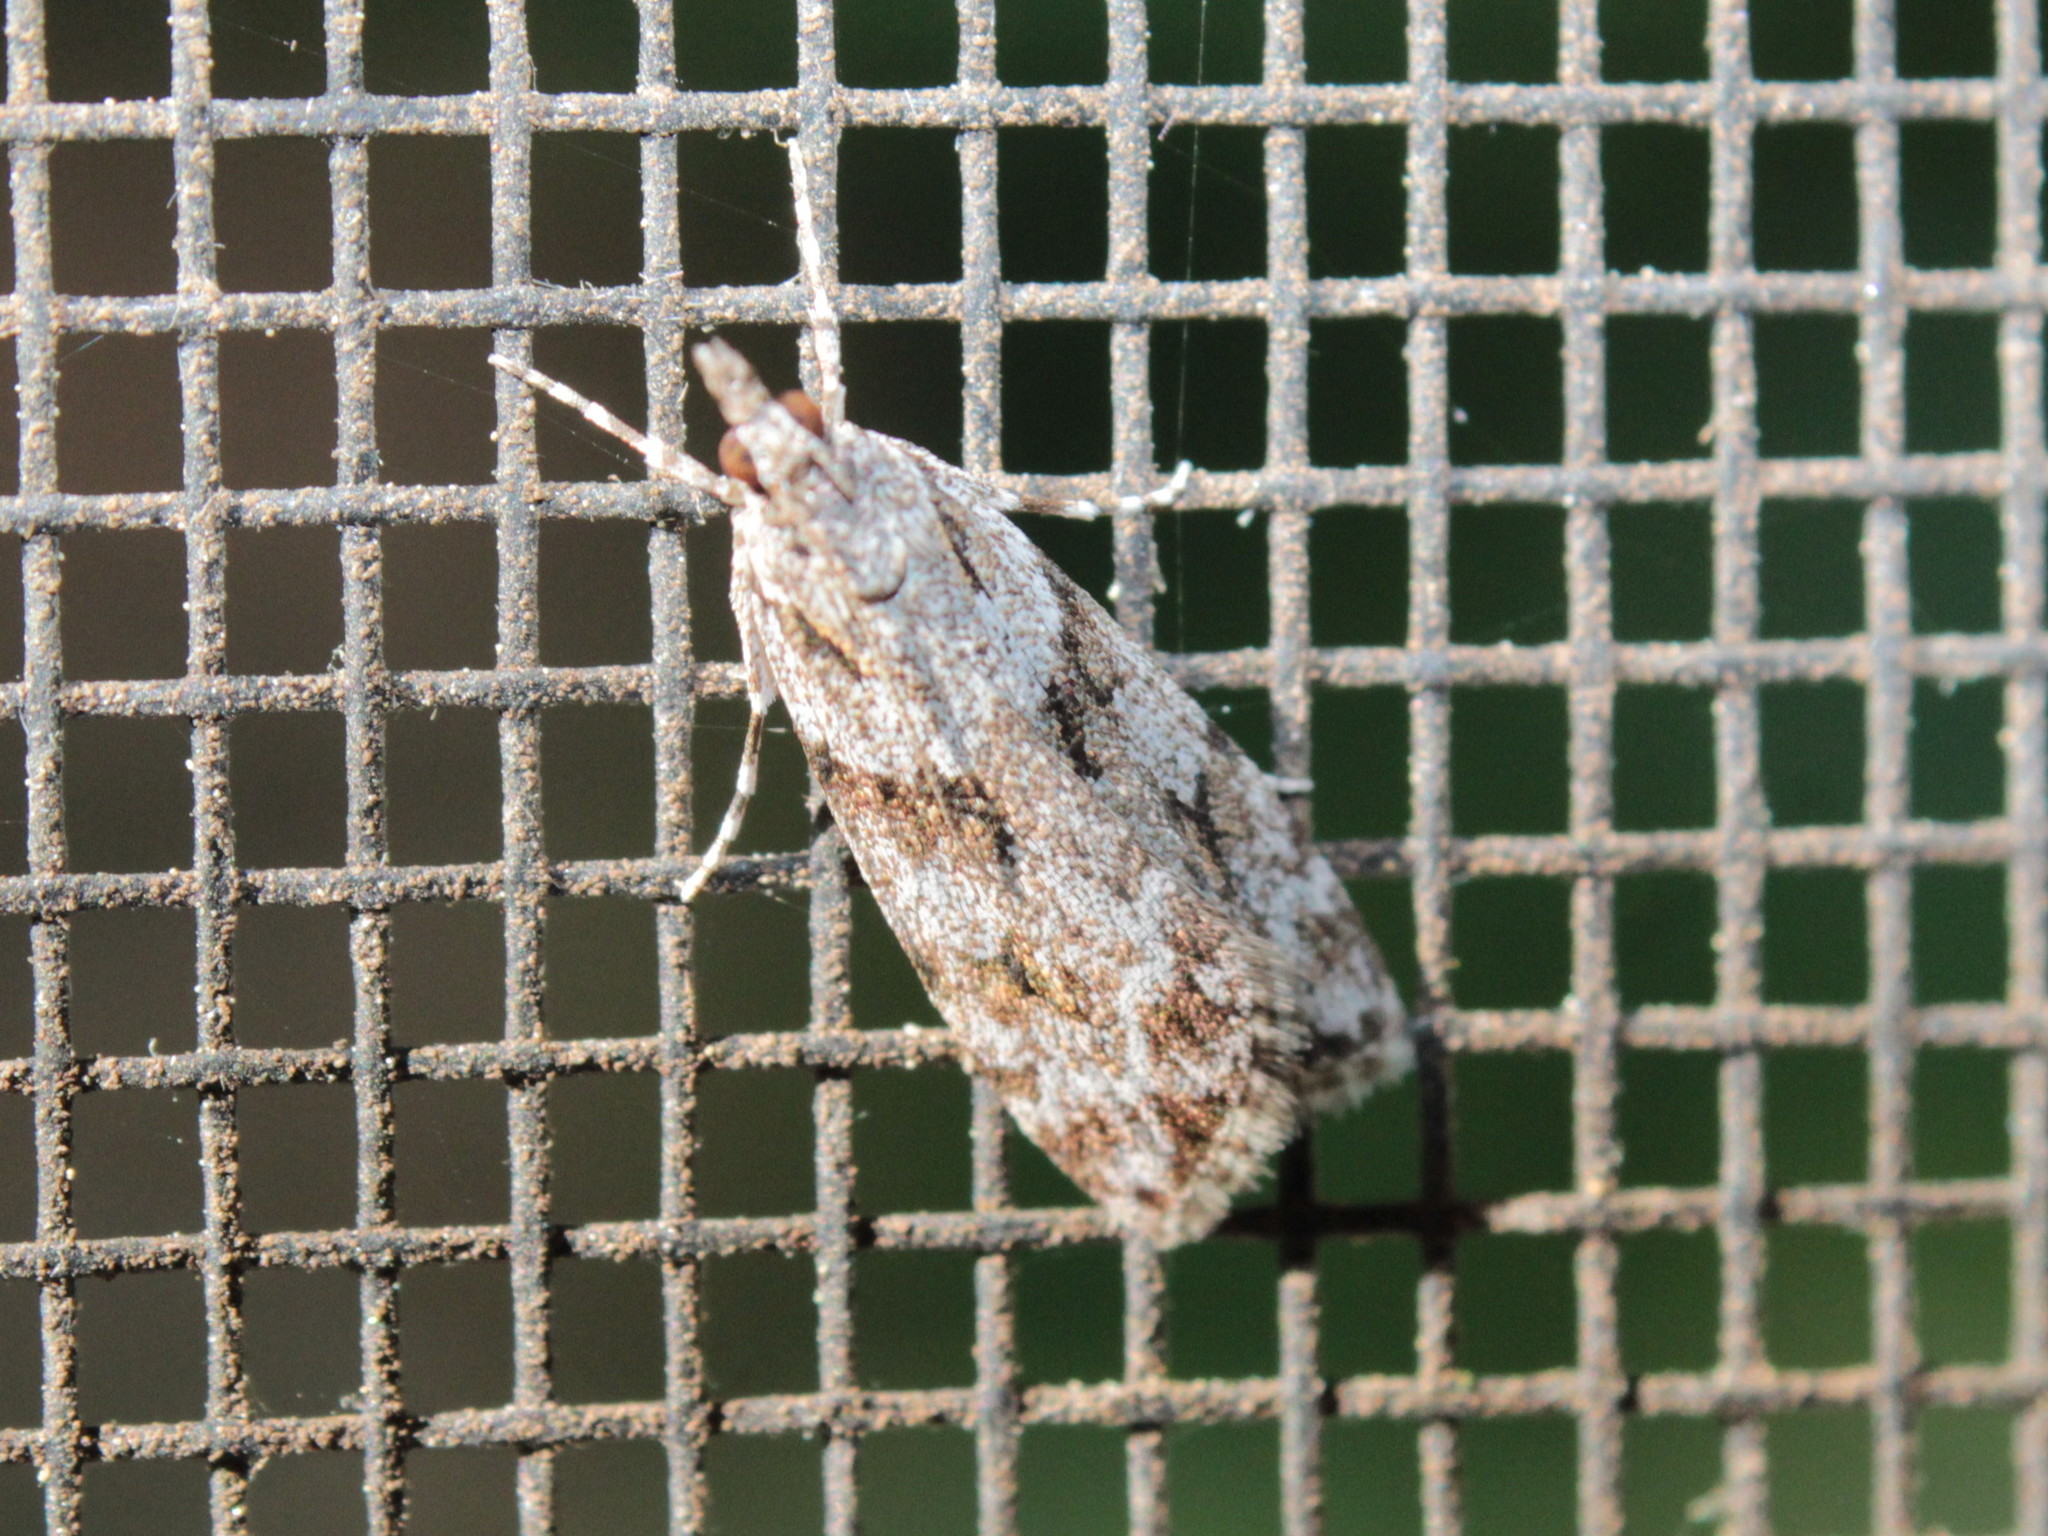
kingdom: Animalia
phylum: Arthropoda
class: Insecta
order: Lepidoptera
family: Crambidae
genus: Scoparia
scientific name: Scoparia biplagialis
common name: Double-striped scoparia moth
